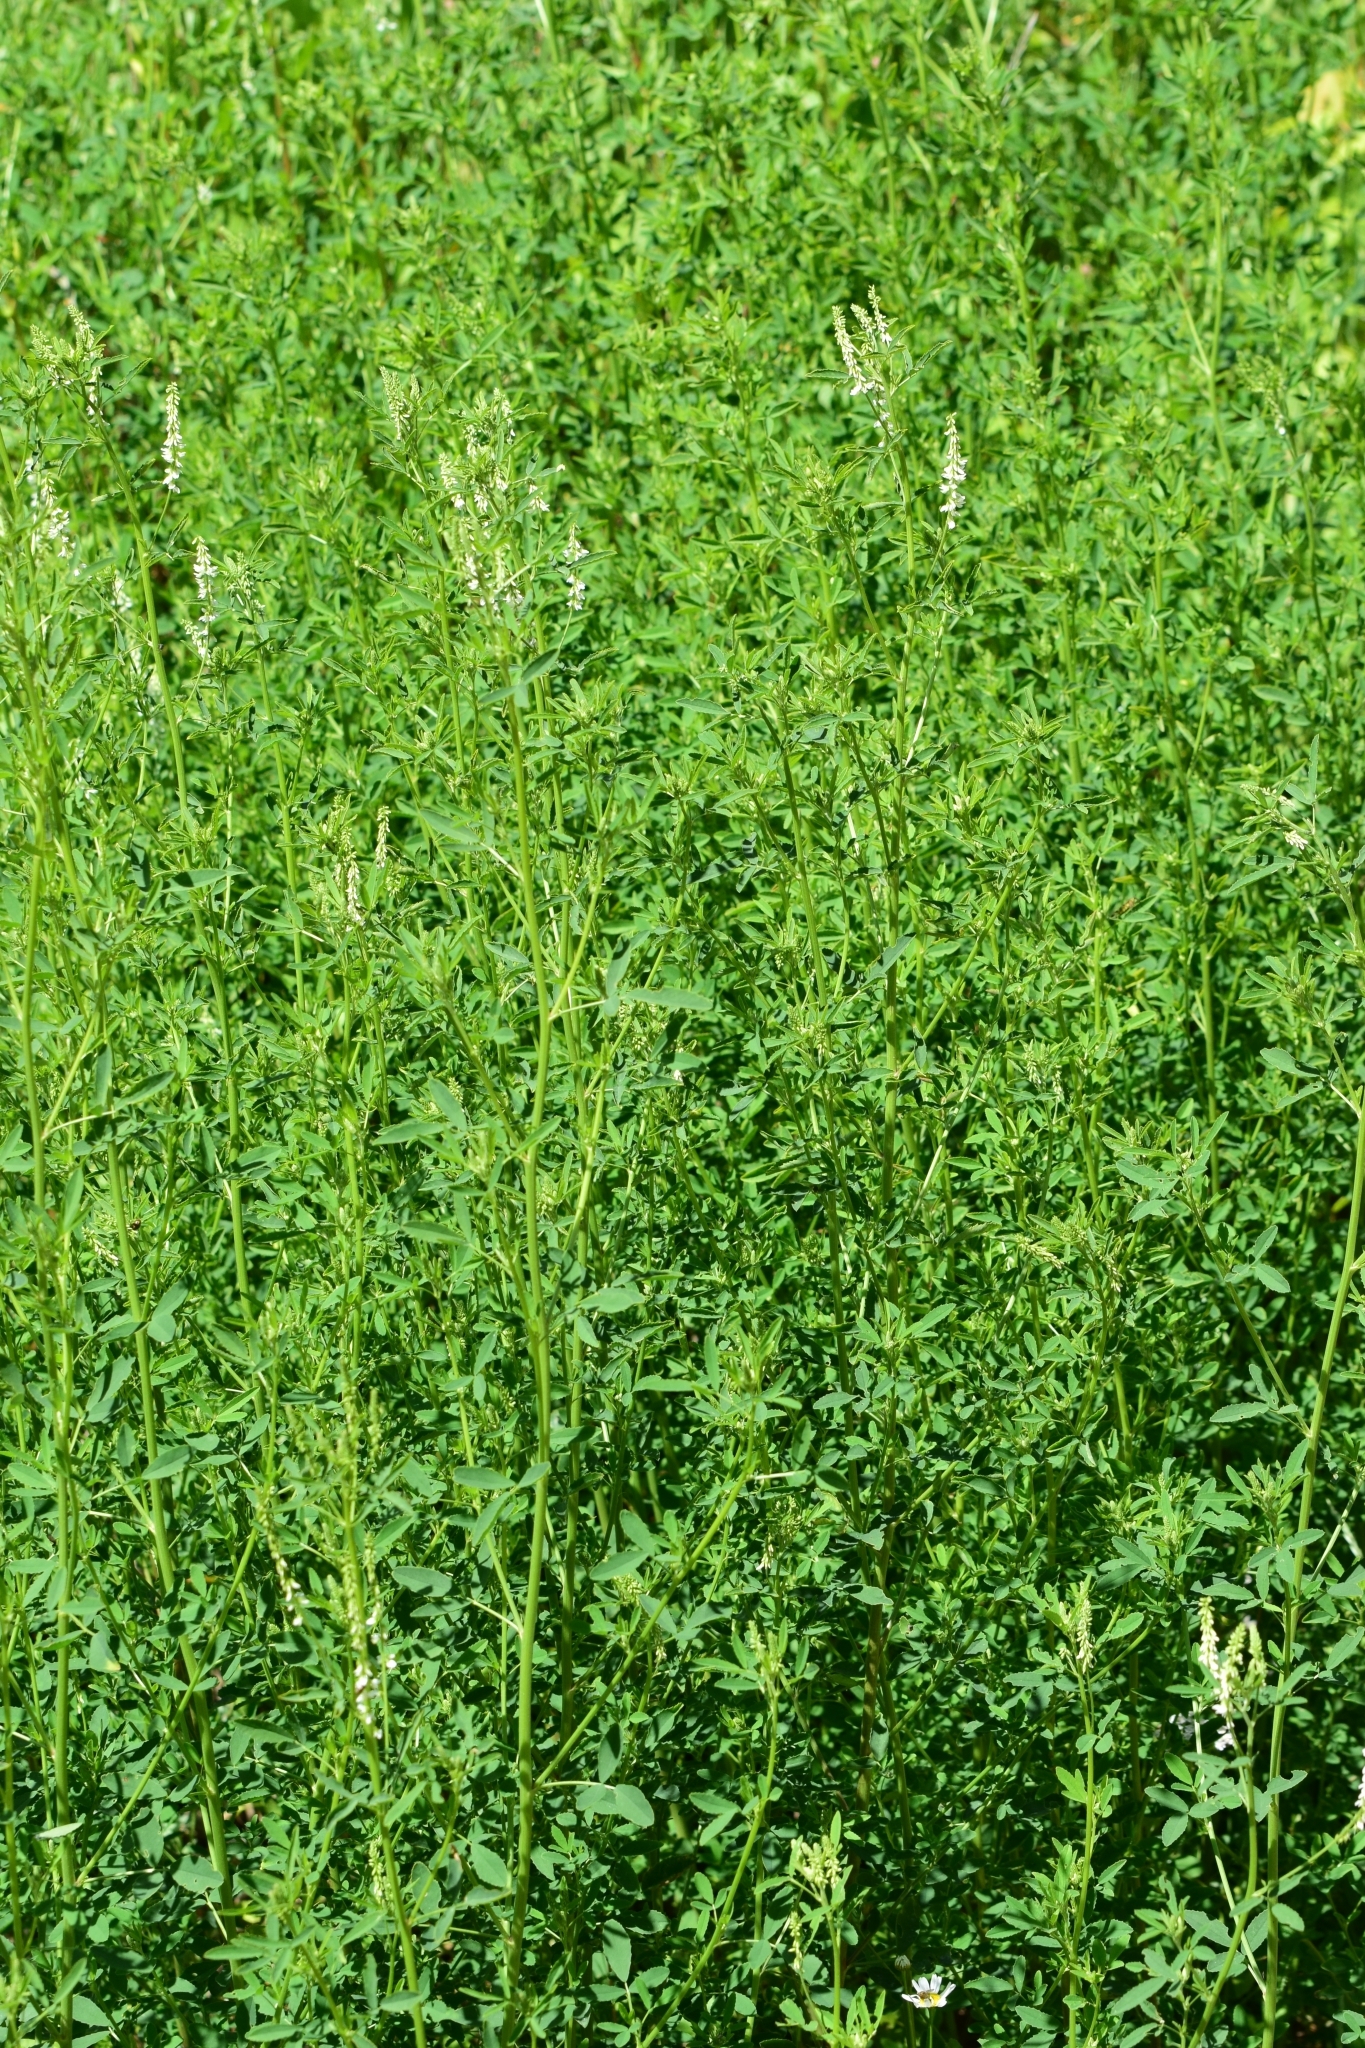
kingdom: Plantae
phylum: Tracheophyta
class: Magnoliopsida
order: Fabales
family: Fabaceae
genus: Melilotus
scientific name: Melilotus albus
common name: White melilot
